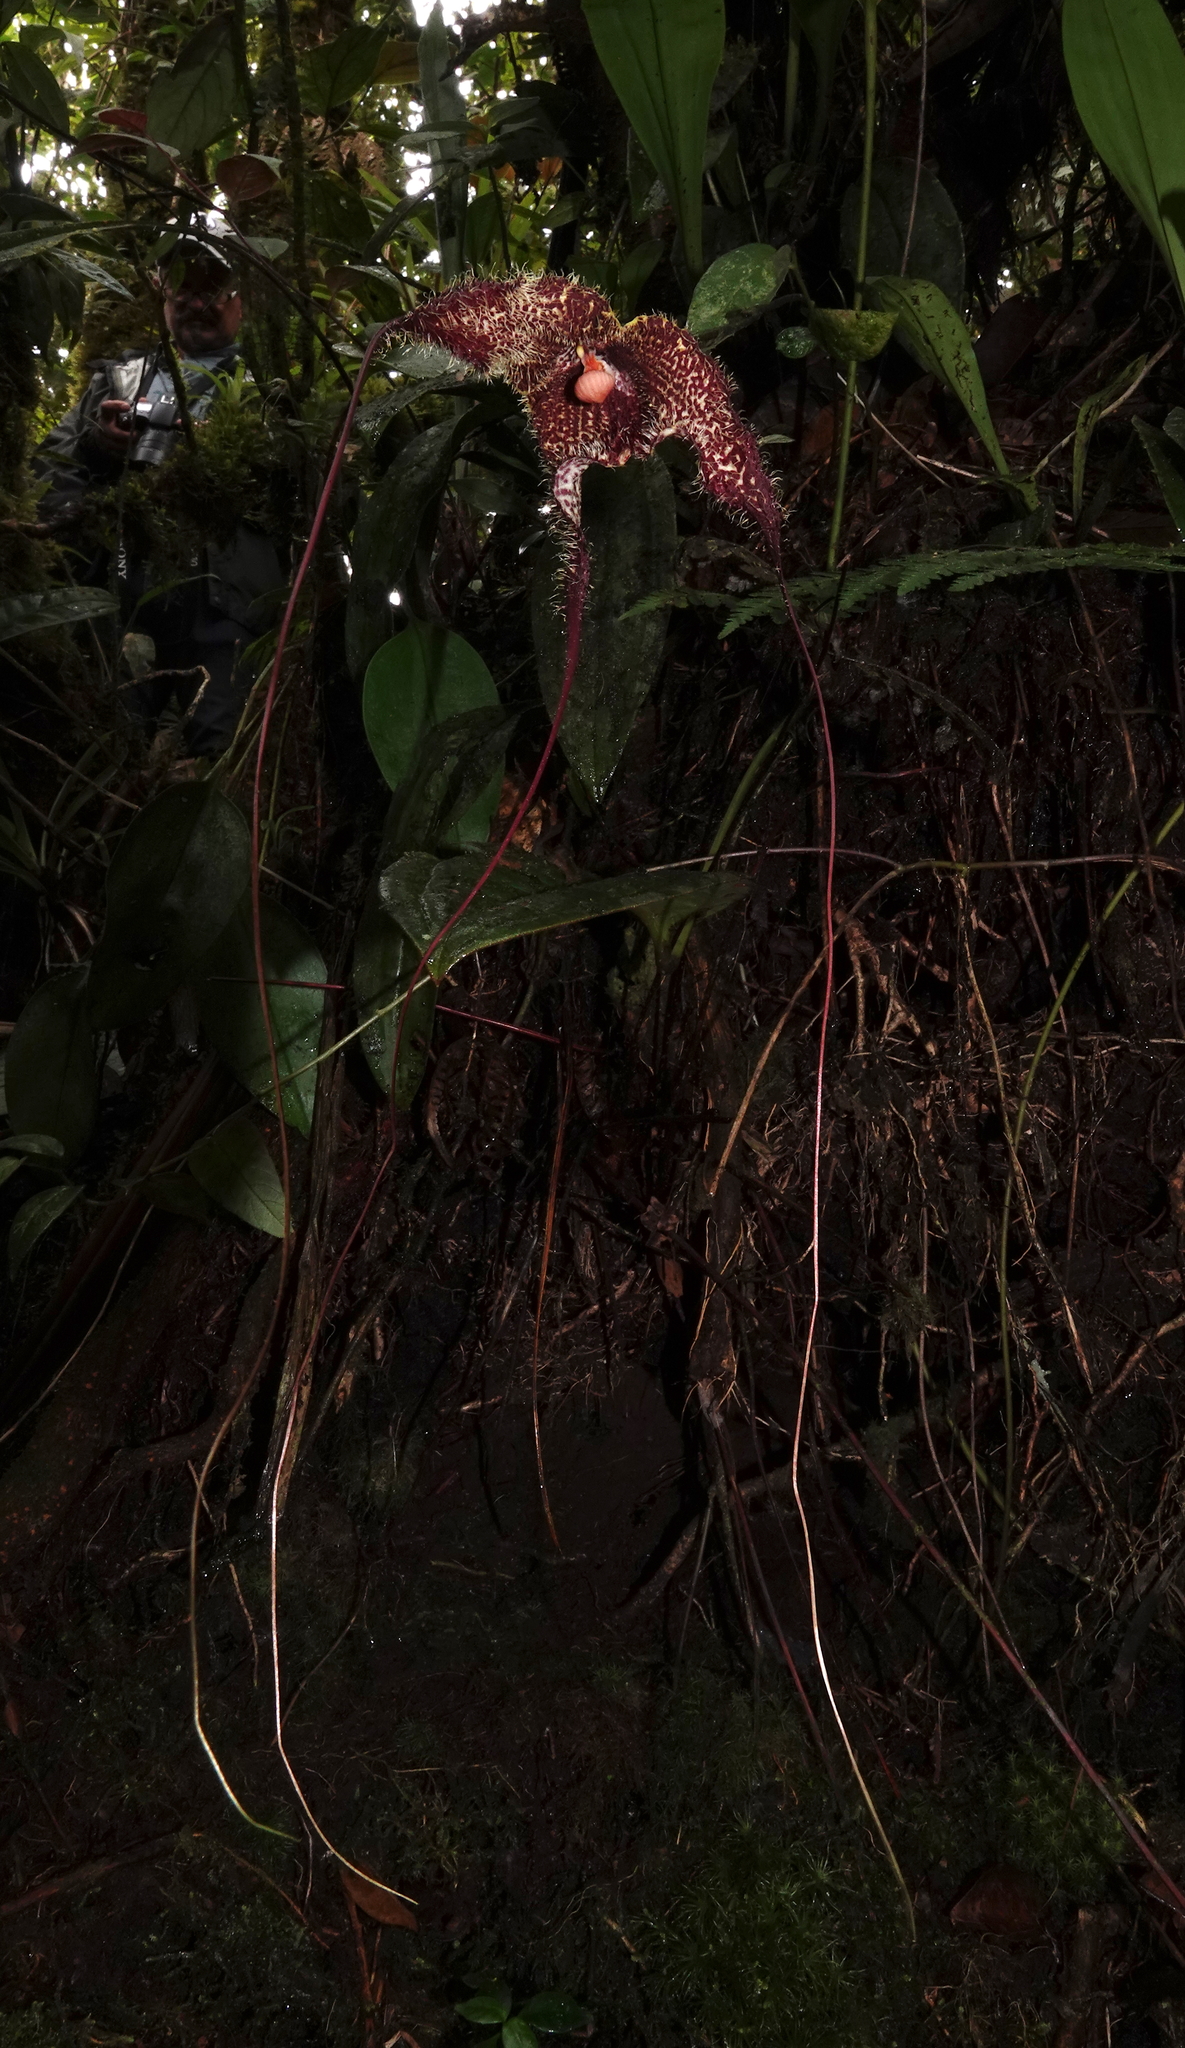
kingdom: Plantae
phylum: Tracheophyta
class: Liliopsida
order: Asparagales
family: Orchidaceae
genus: Dracula
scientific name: Dracula chimaera
